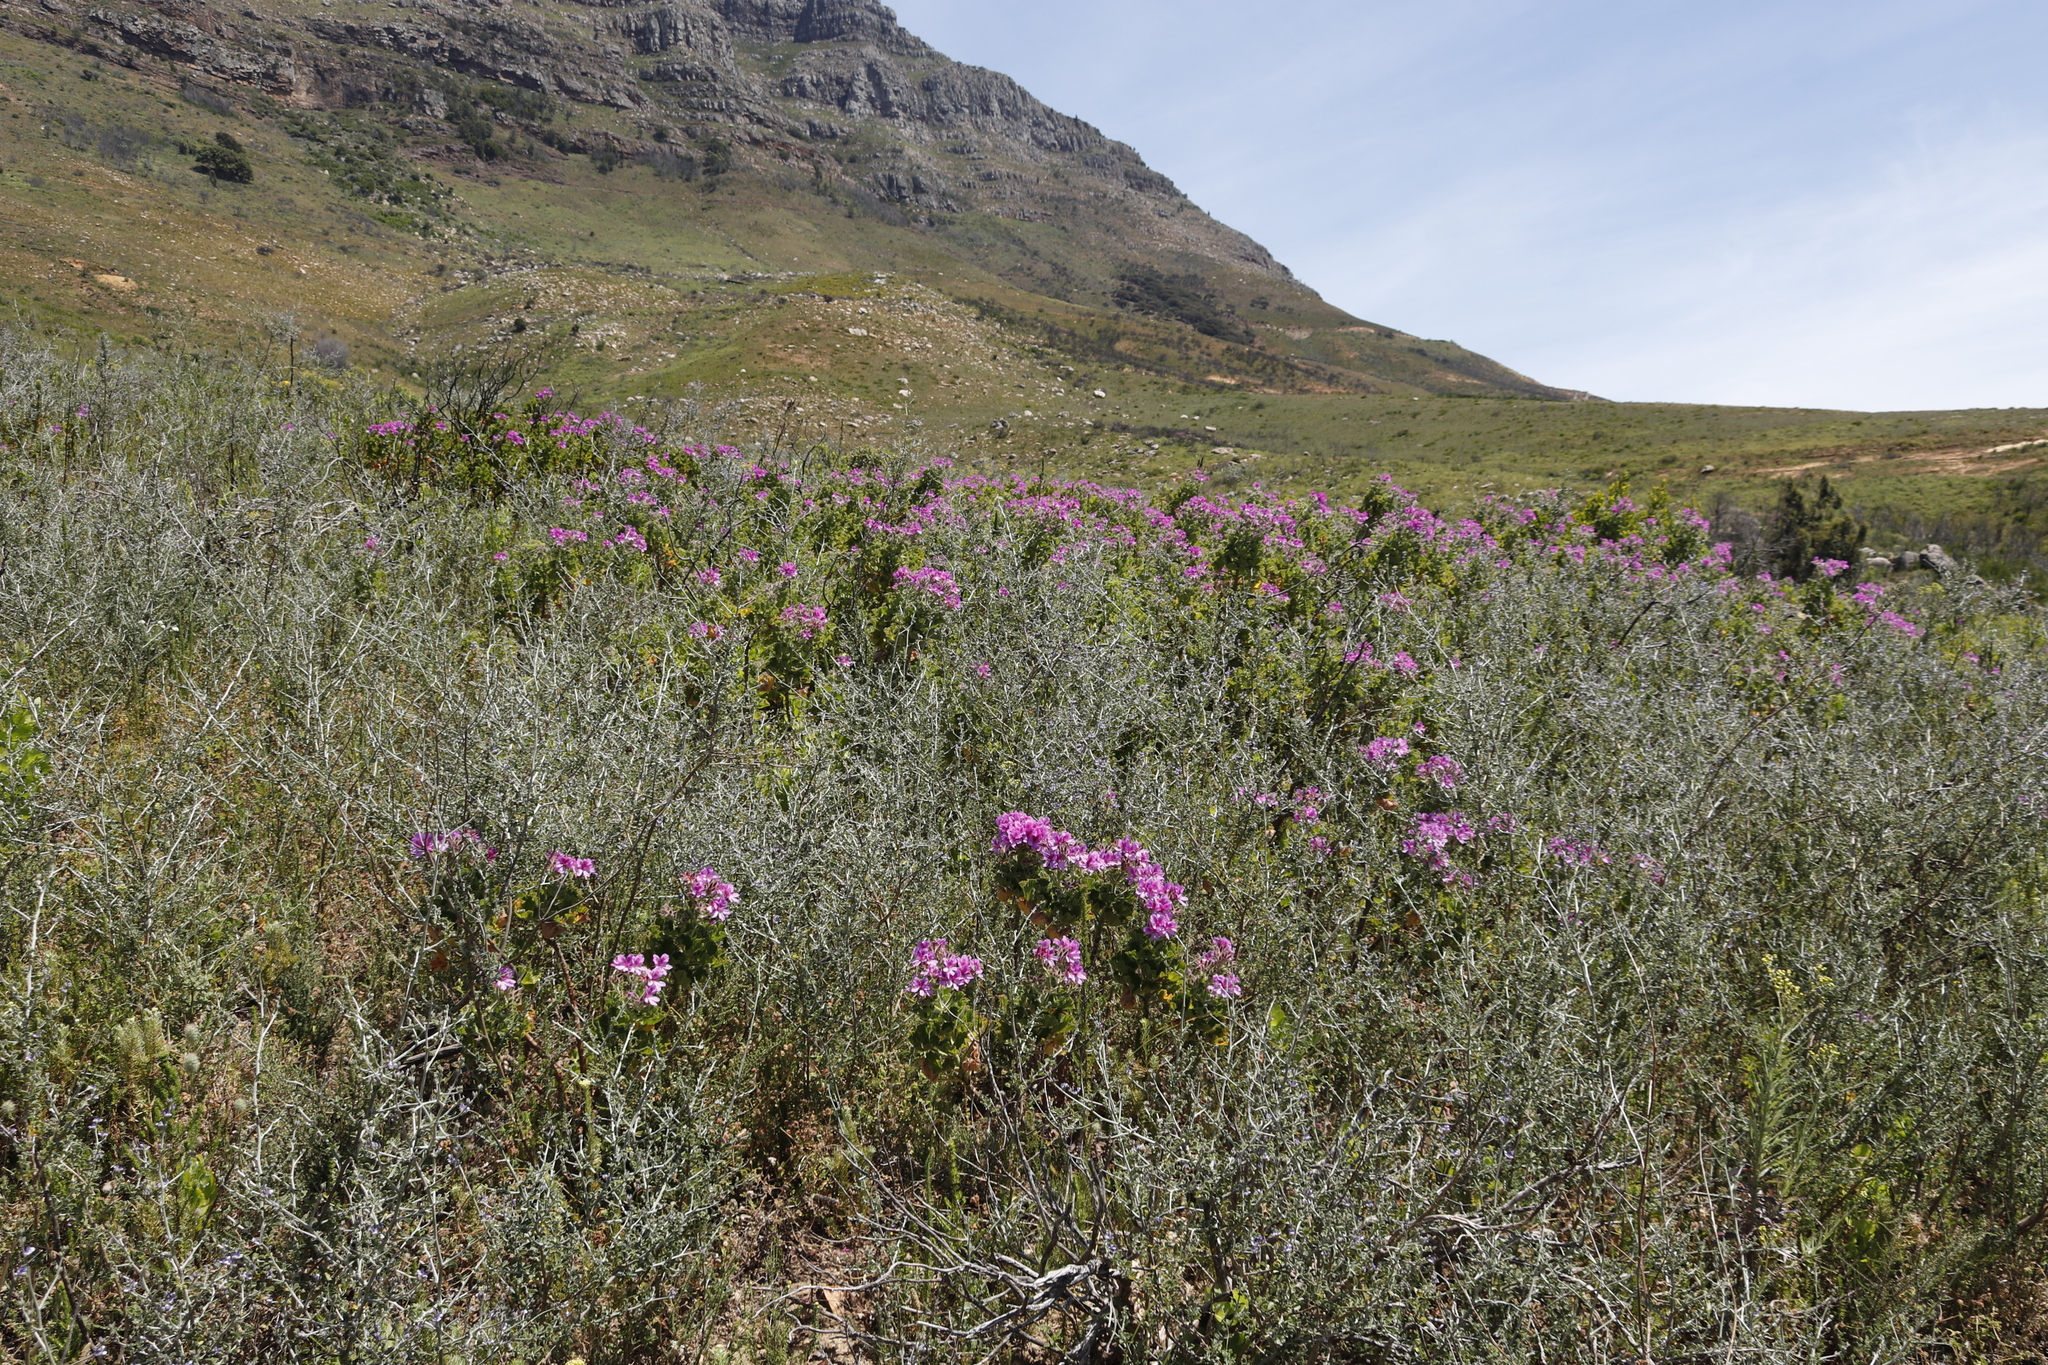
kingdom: Plantae
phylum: Tracheophyta
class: Magnoliopsida
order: Geraniales
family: Geraniaceae
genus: Pelargonium
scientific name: Pelargonium cucullatum
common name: Tree pelargonium
